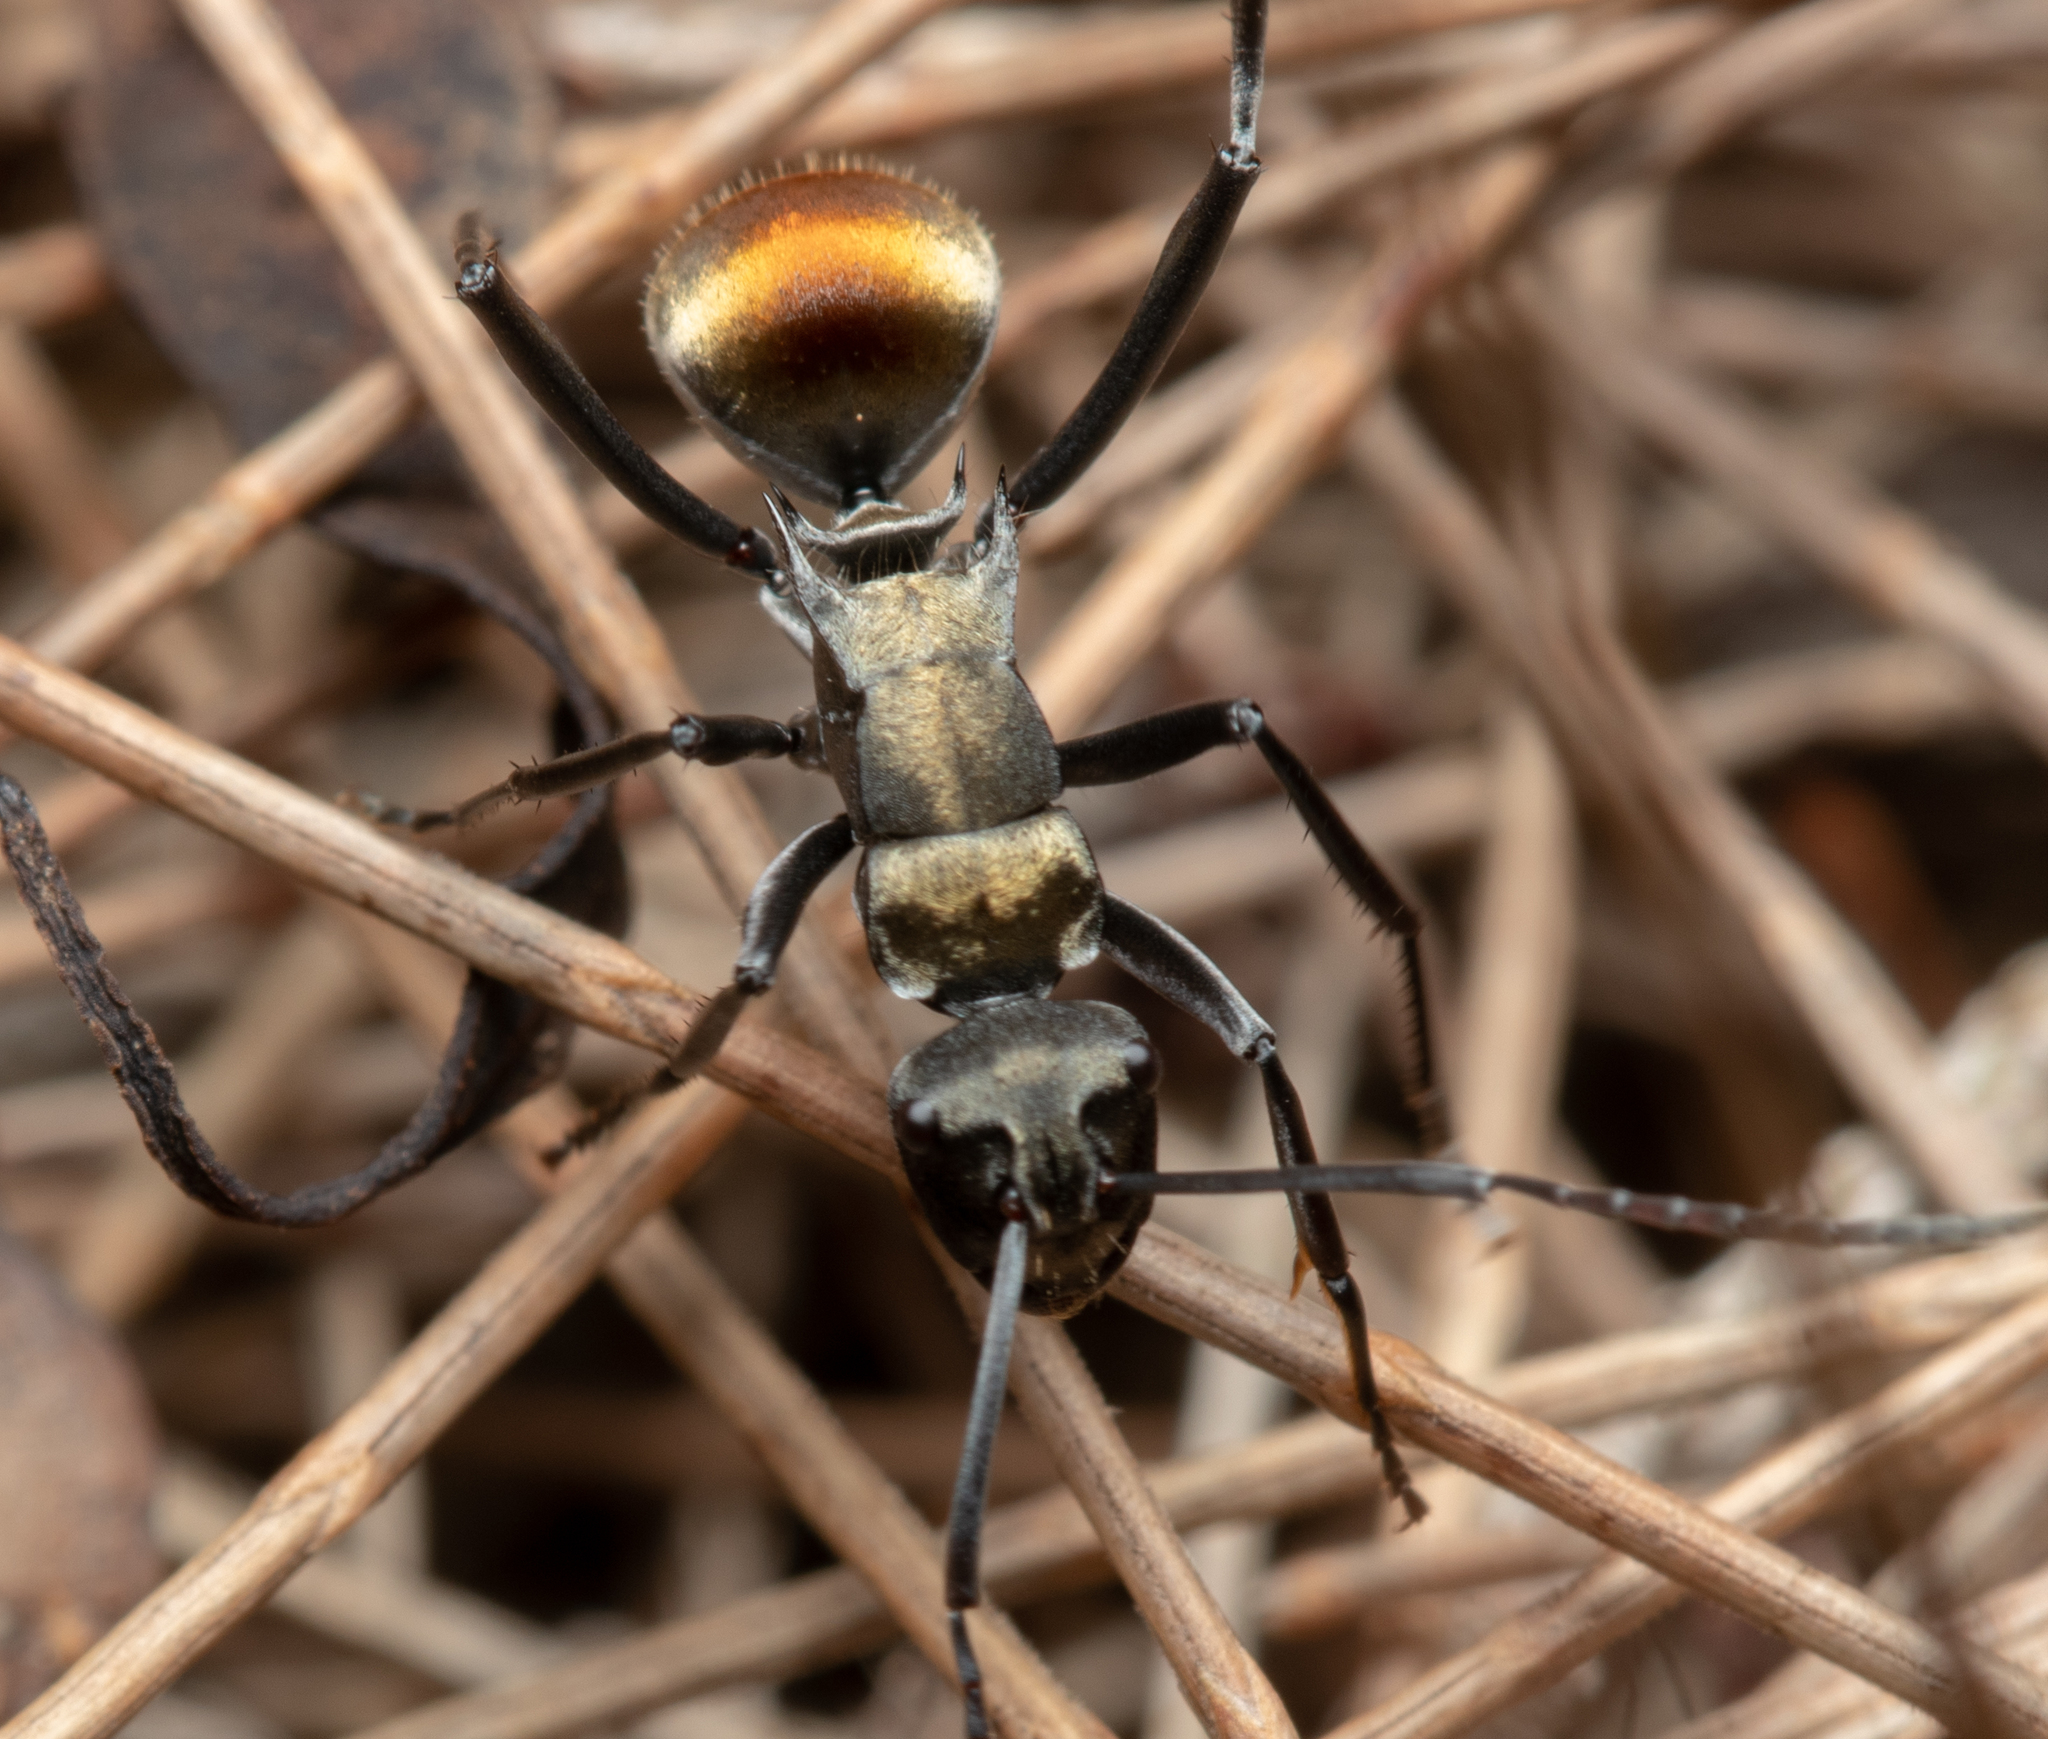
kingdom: Animalia
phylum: Arthropoda
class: Insecta
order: Hymenoptera
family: Formicidae
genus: Polyrhachis
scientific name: Polyrhachis ammon
